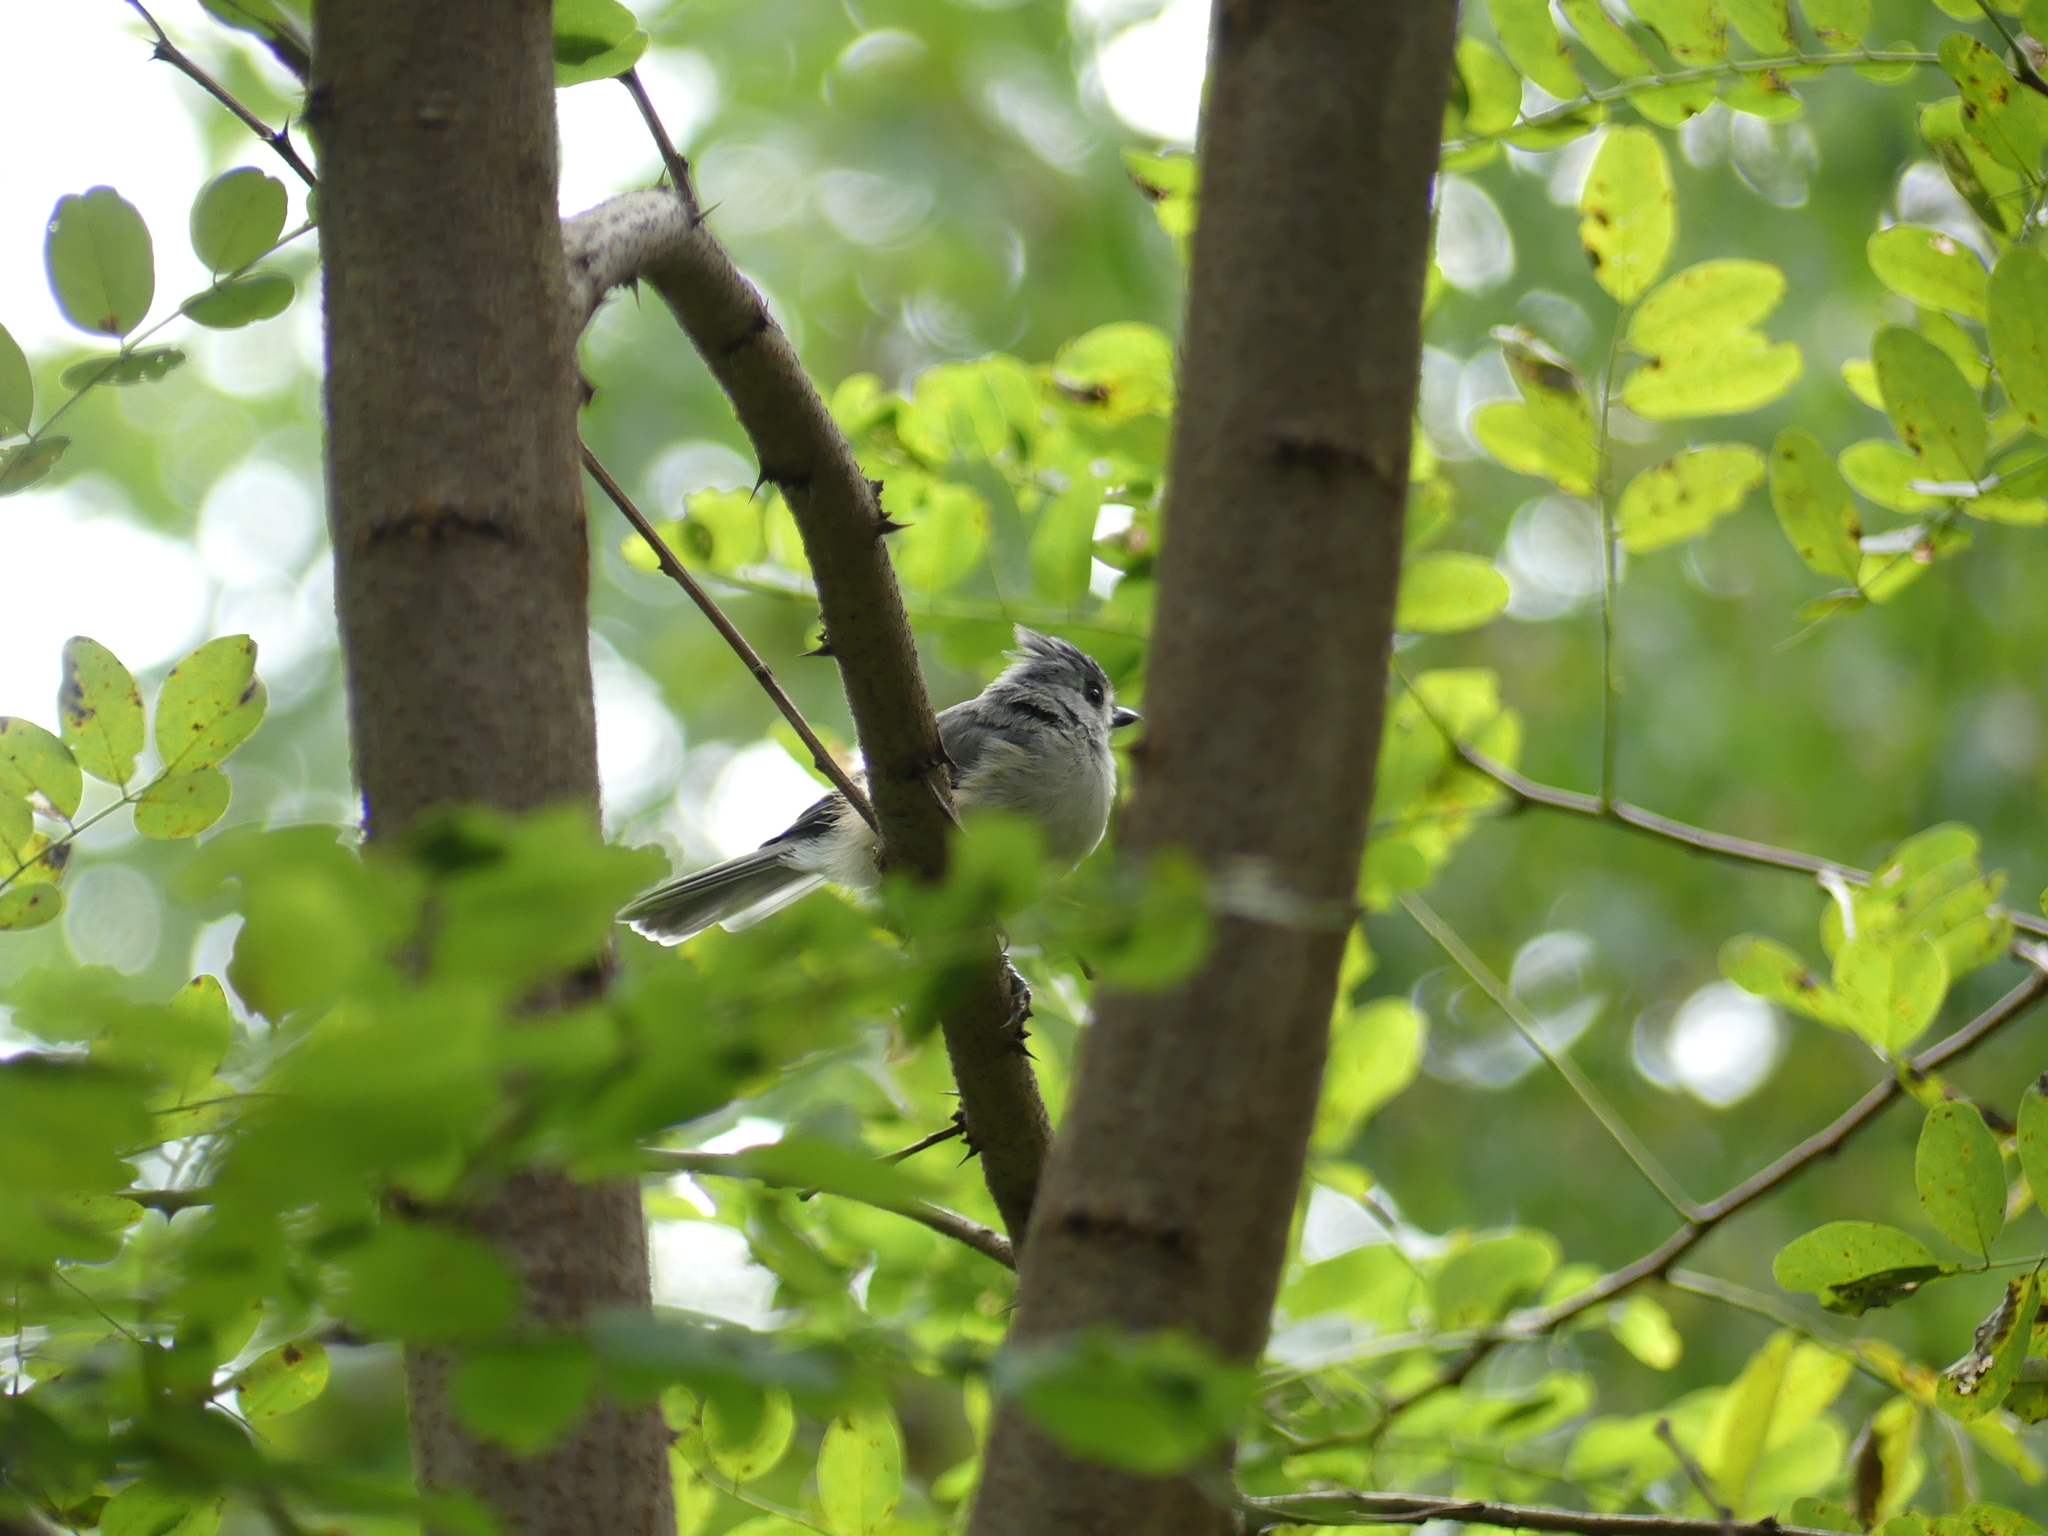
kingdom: Animalia
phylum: Chordata
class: Aves
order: Passeriformes
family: Paridae
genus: Baeolophus
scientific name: Baeolophus bicolor
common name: Tufted titmouse
